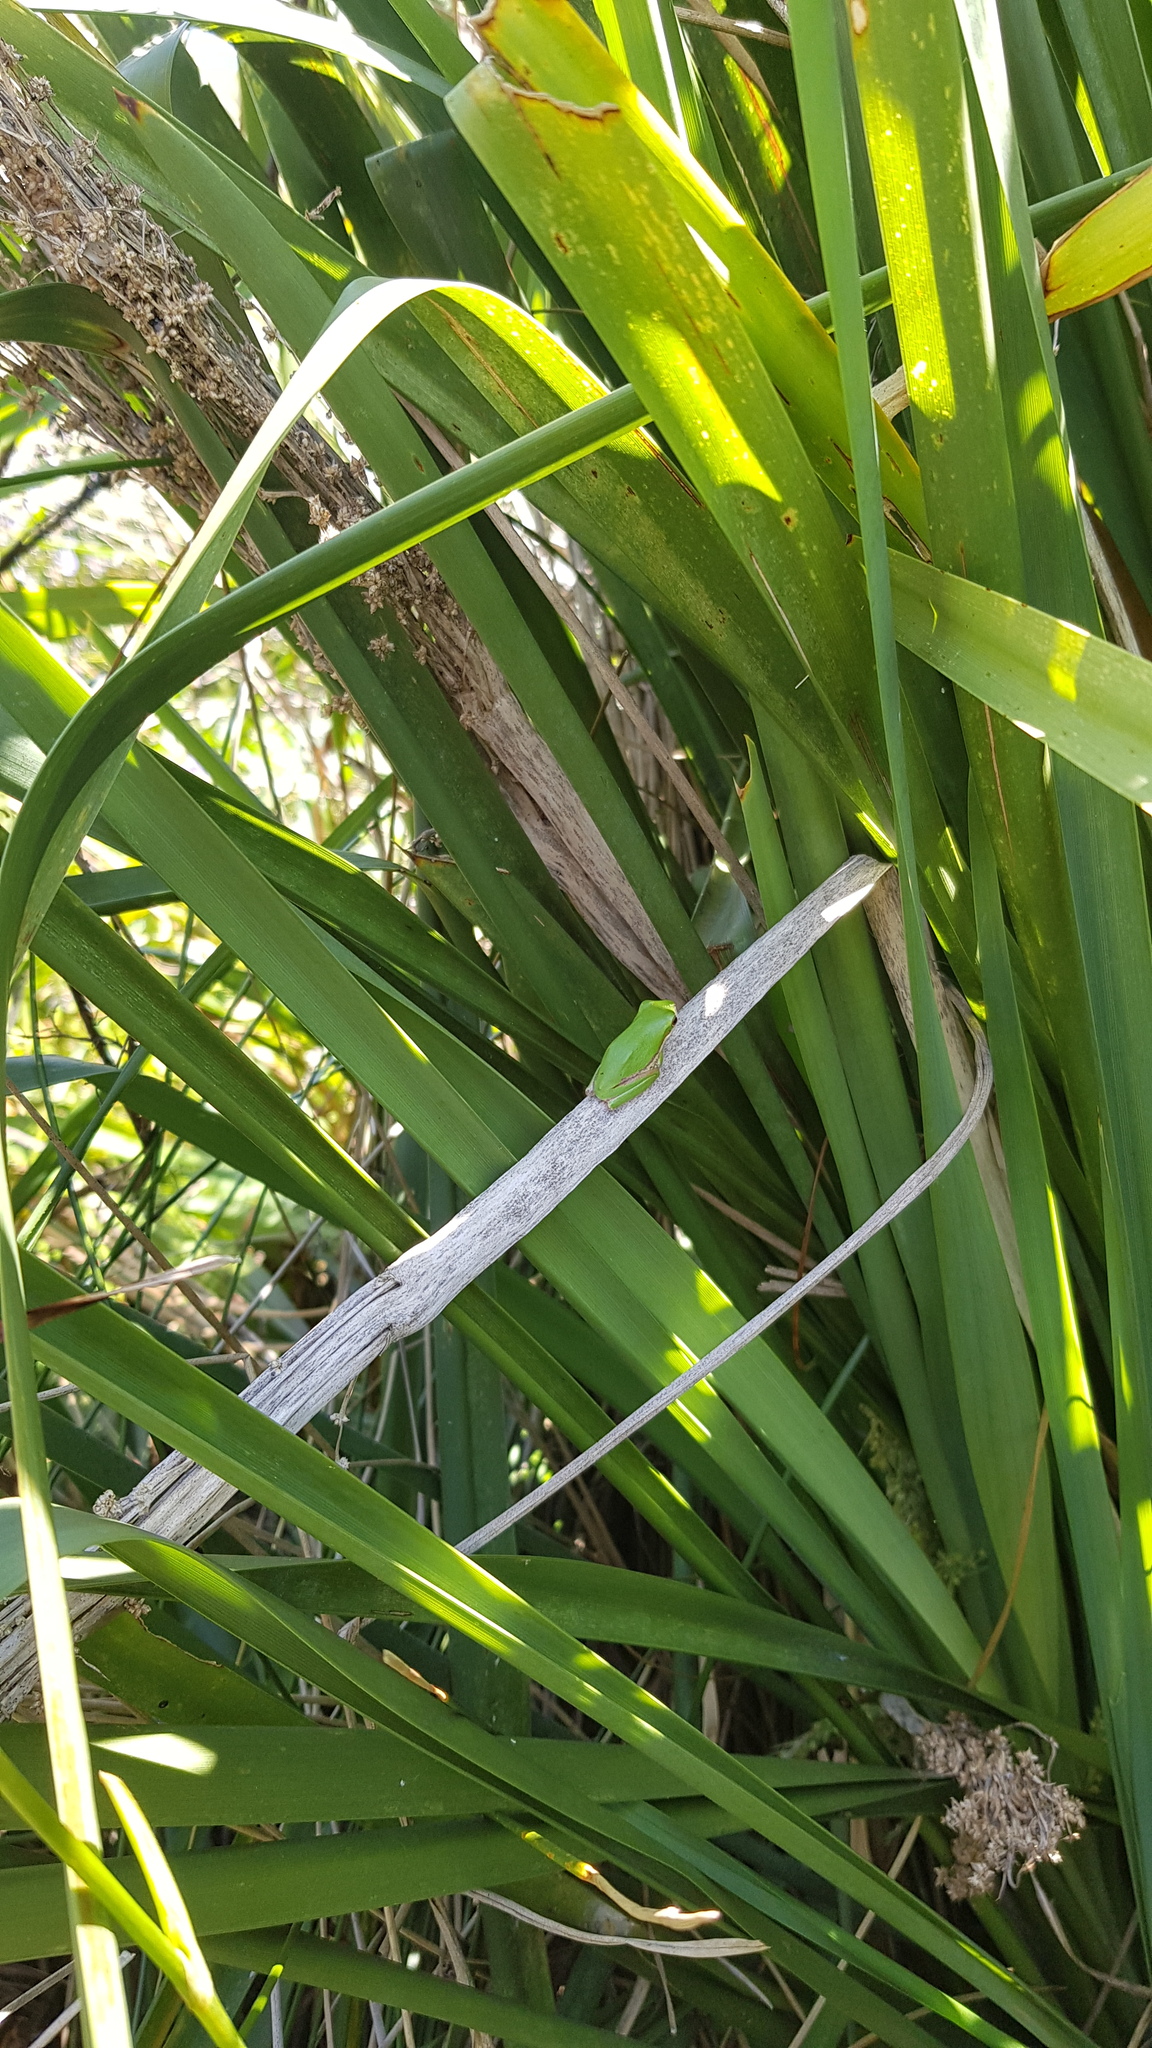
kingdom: Animalia
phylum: Chordata
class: Amphibia
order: Anura
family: Pelodryadidae
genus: Litoria
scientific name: Litoria fallax
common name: Eastern dwarf treefrog
